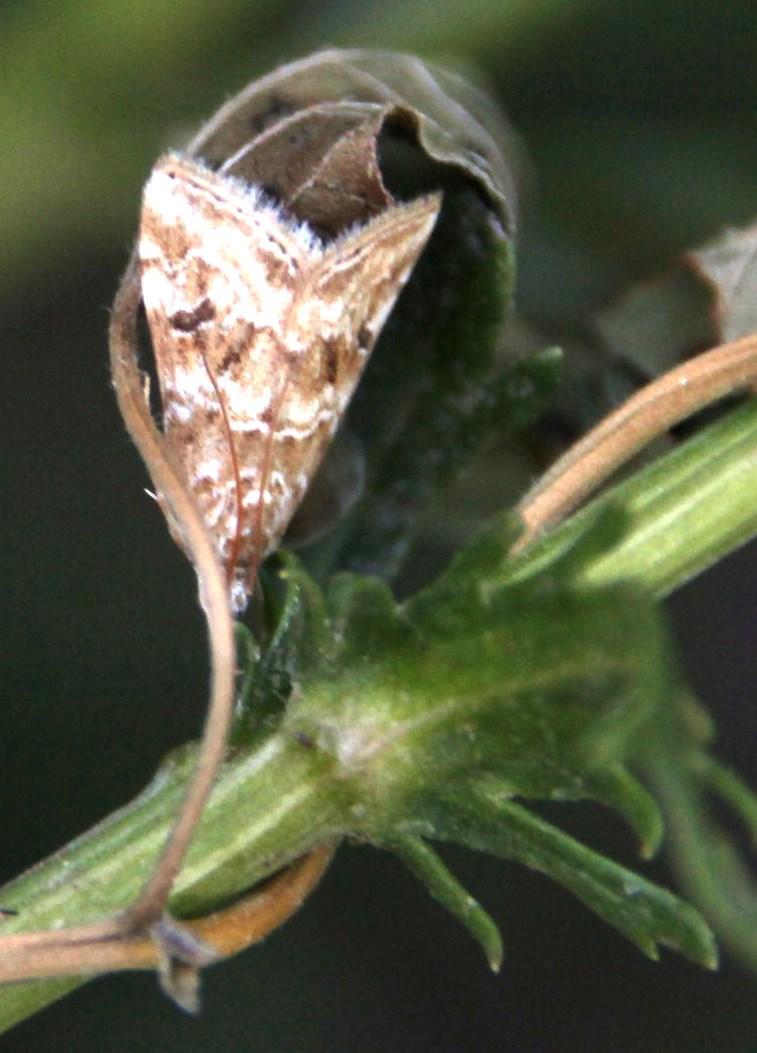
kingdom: Animalia
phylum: Arthropoda
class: Insecta
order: Lepidoptera
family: Crambidae
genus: Hellula
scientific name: Hellula undalis
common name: Cabbage webworm
